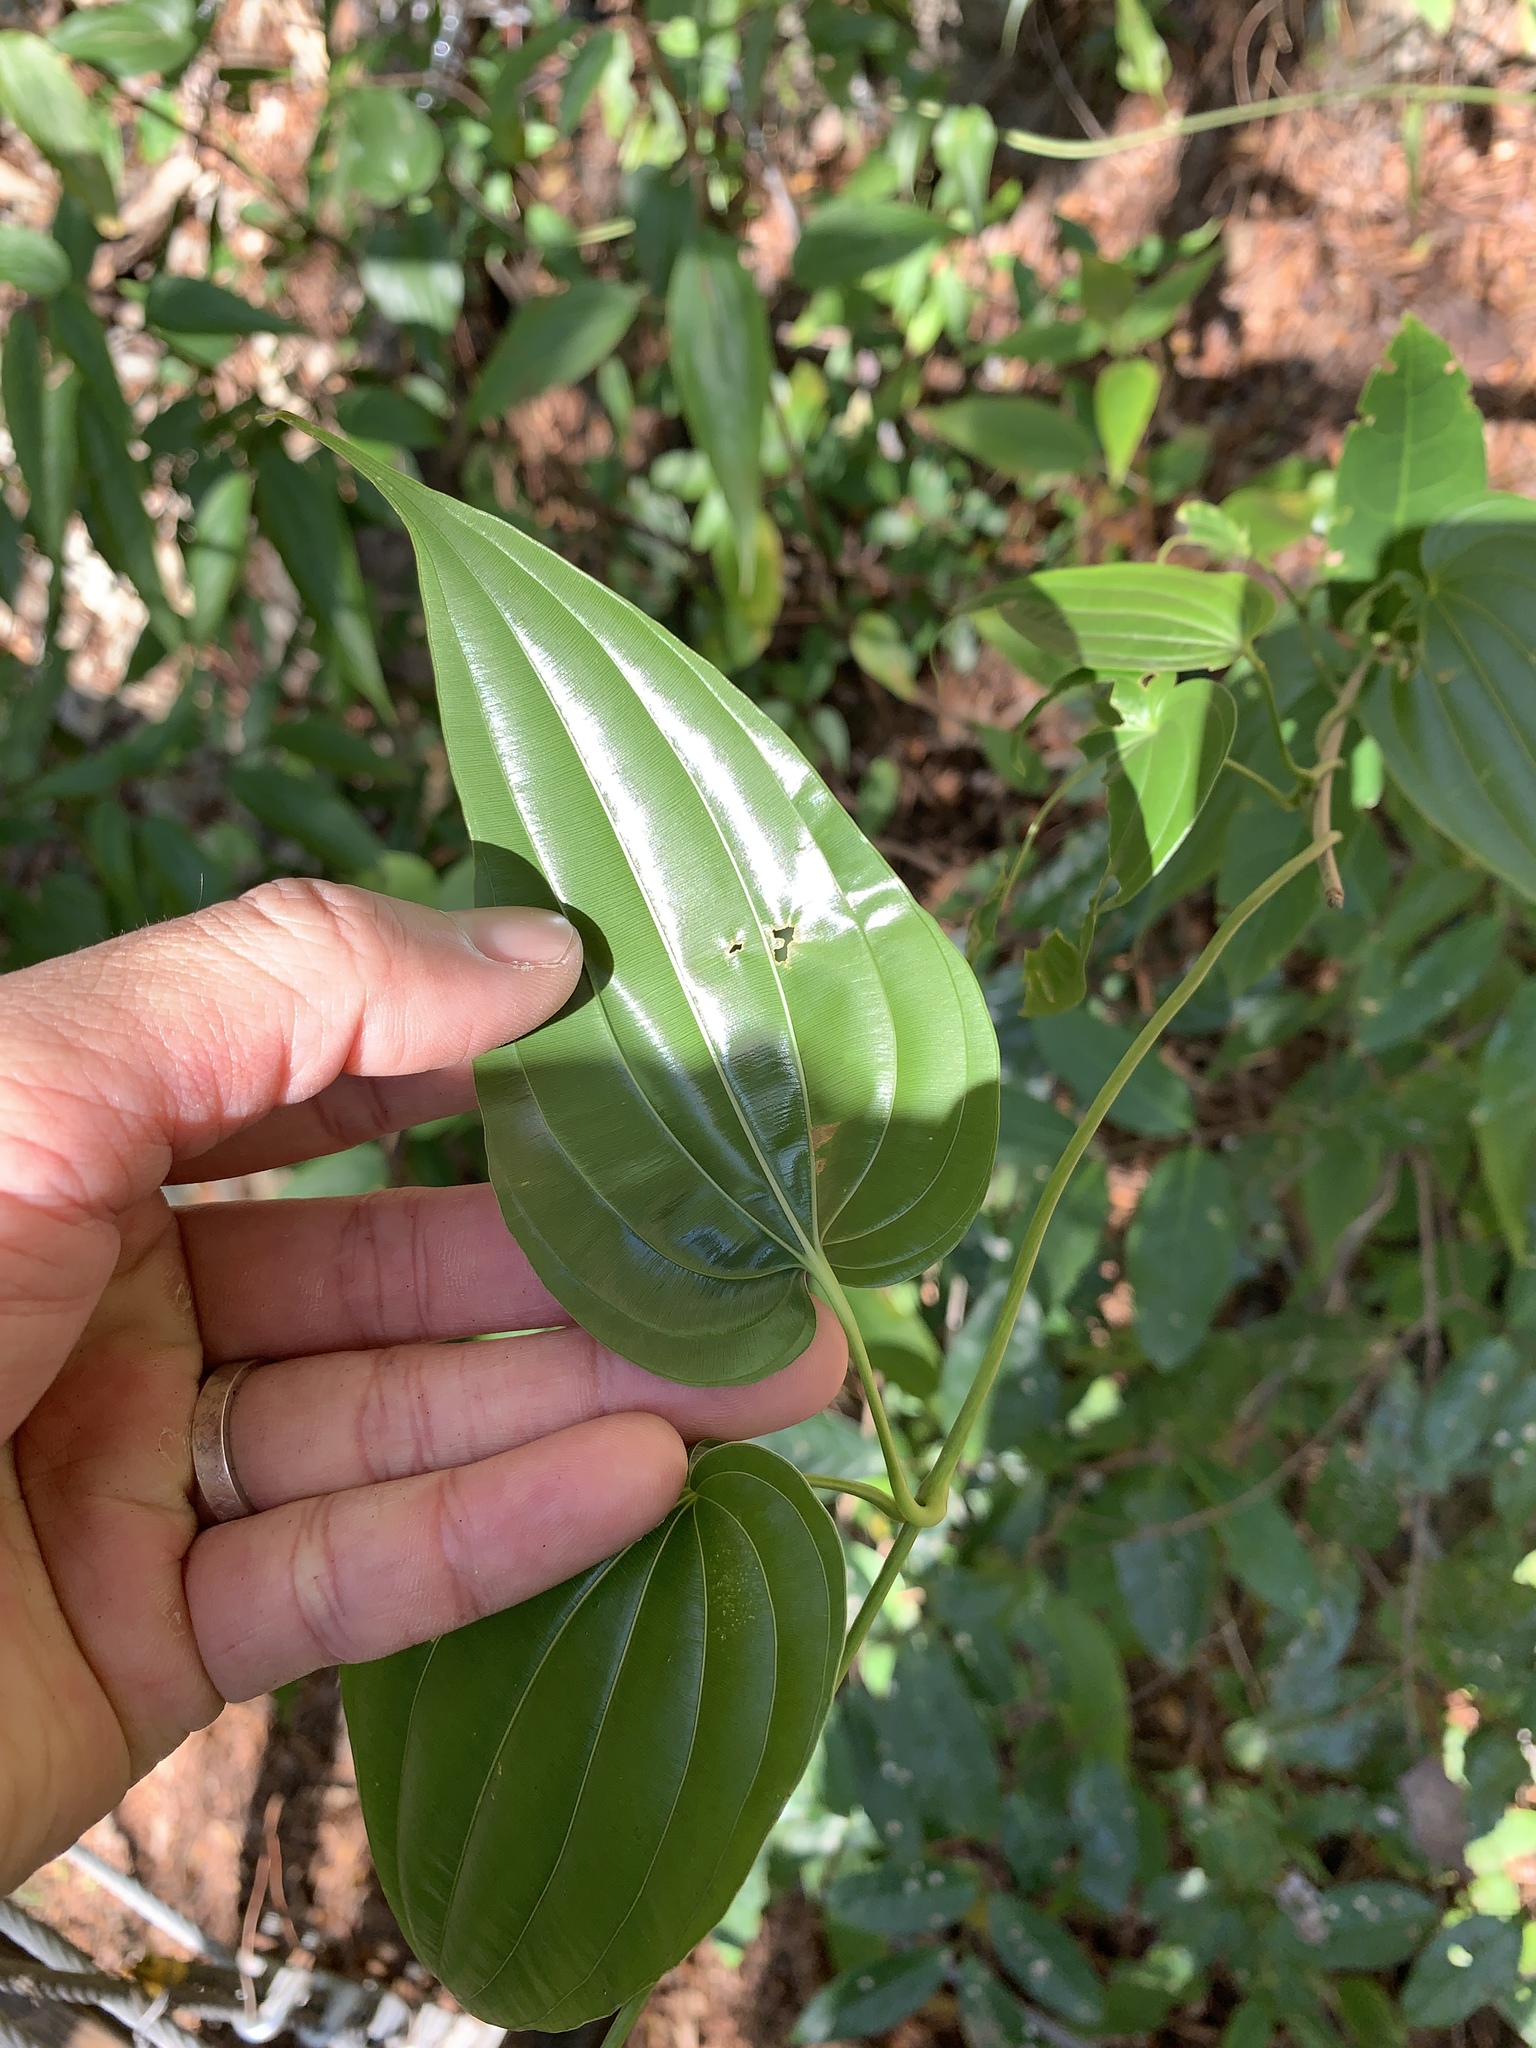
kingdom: Plantae
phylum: Tracheophyta
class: Liliopsida
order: Pandanales
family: Stemonaceae
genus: Stemona
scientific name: Stemona tuberosa
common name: Stemona
